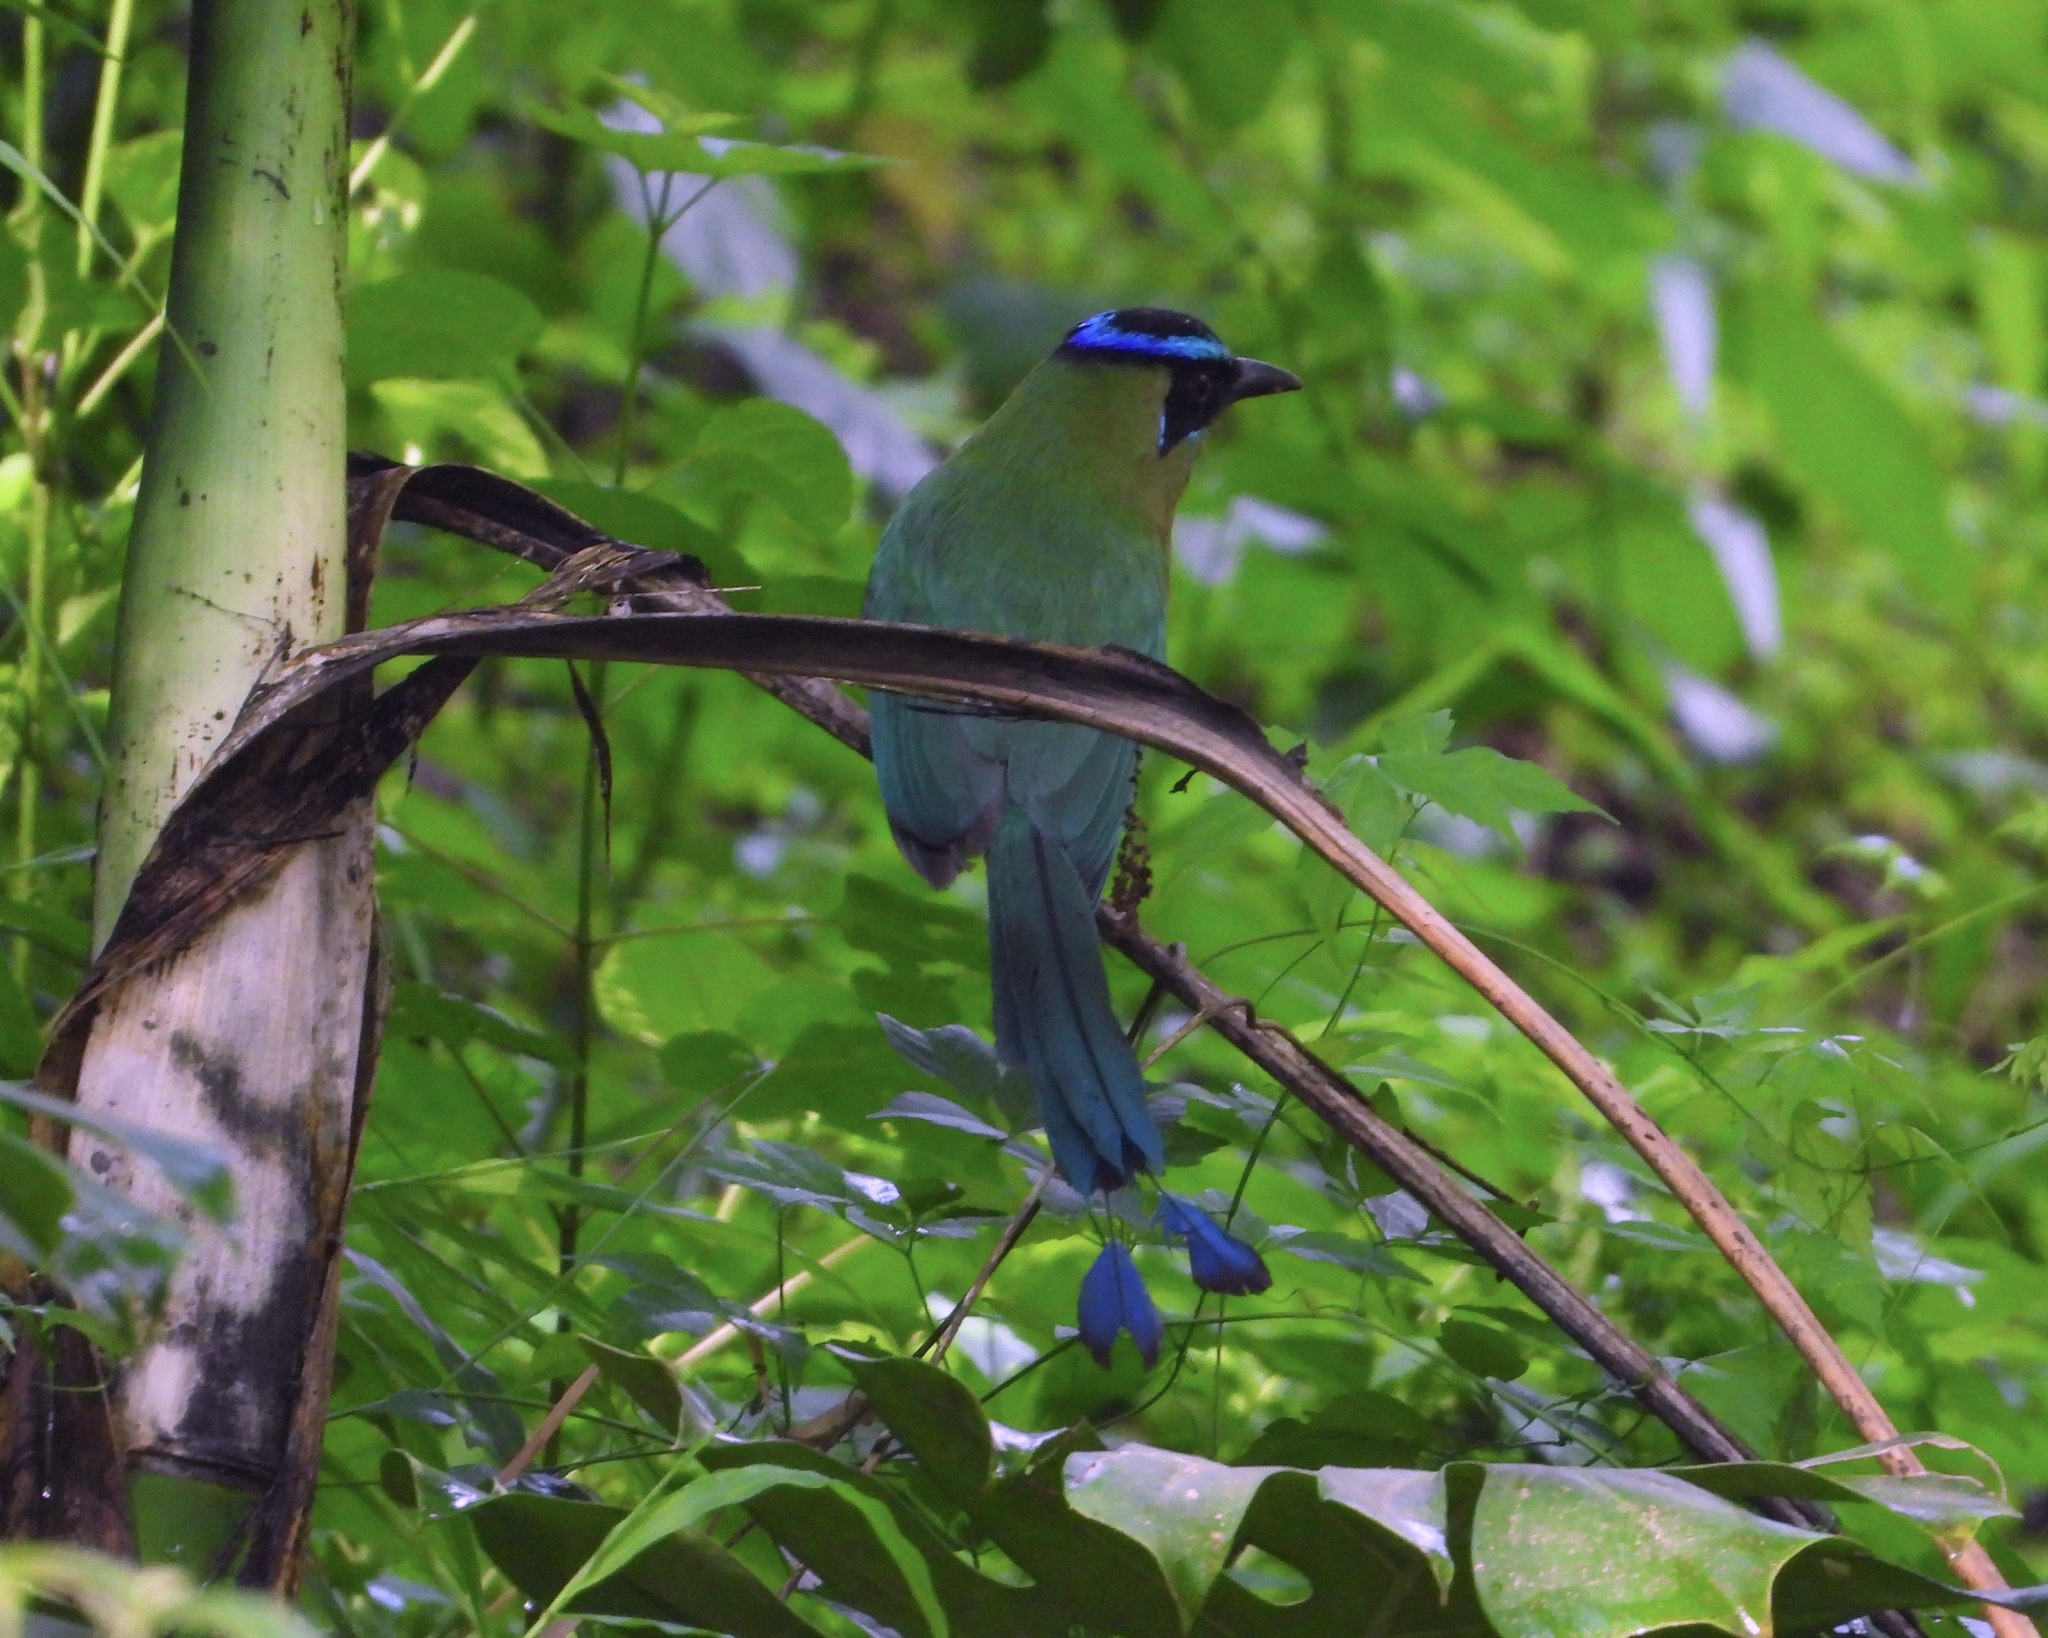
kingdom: Animalia
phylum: Chordata
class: Aves
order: Coraciiformes
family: Momotidae
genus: Momotus
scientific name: Momotus lessonii
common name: Lesson's motmot
